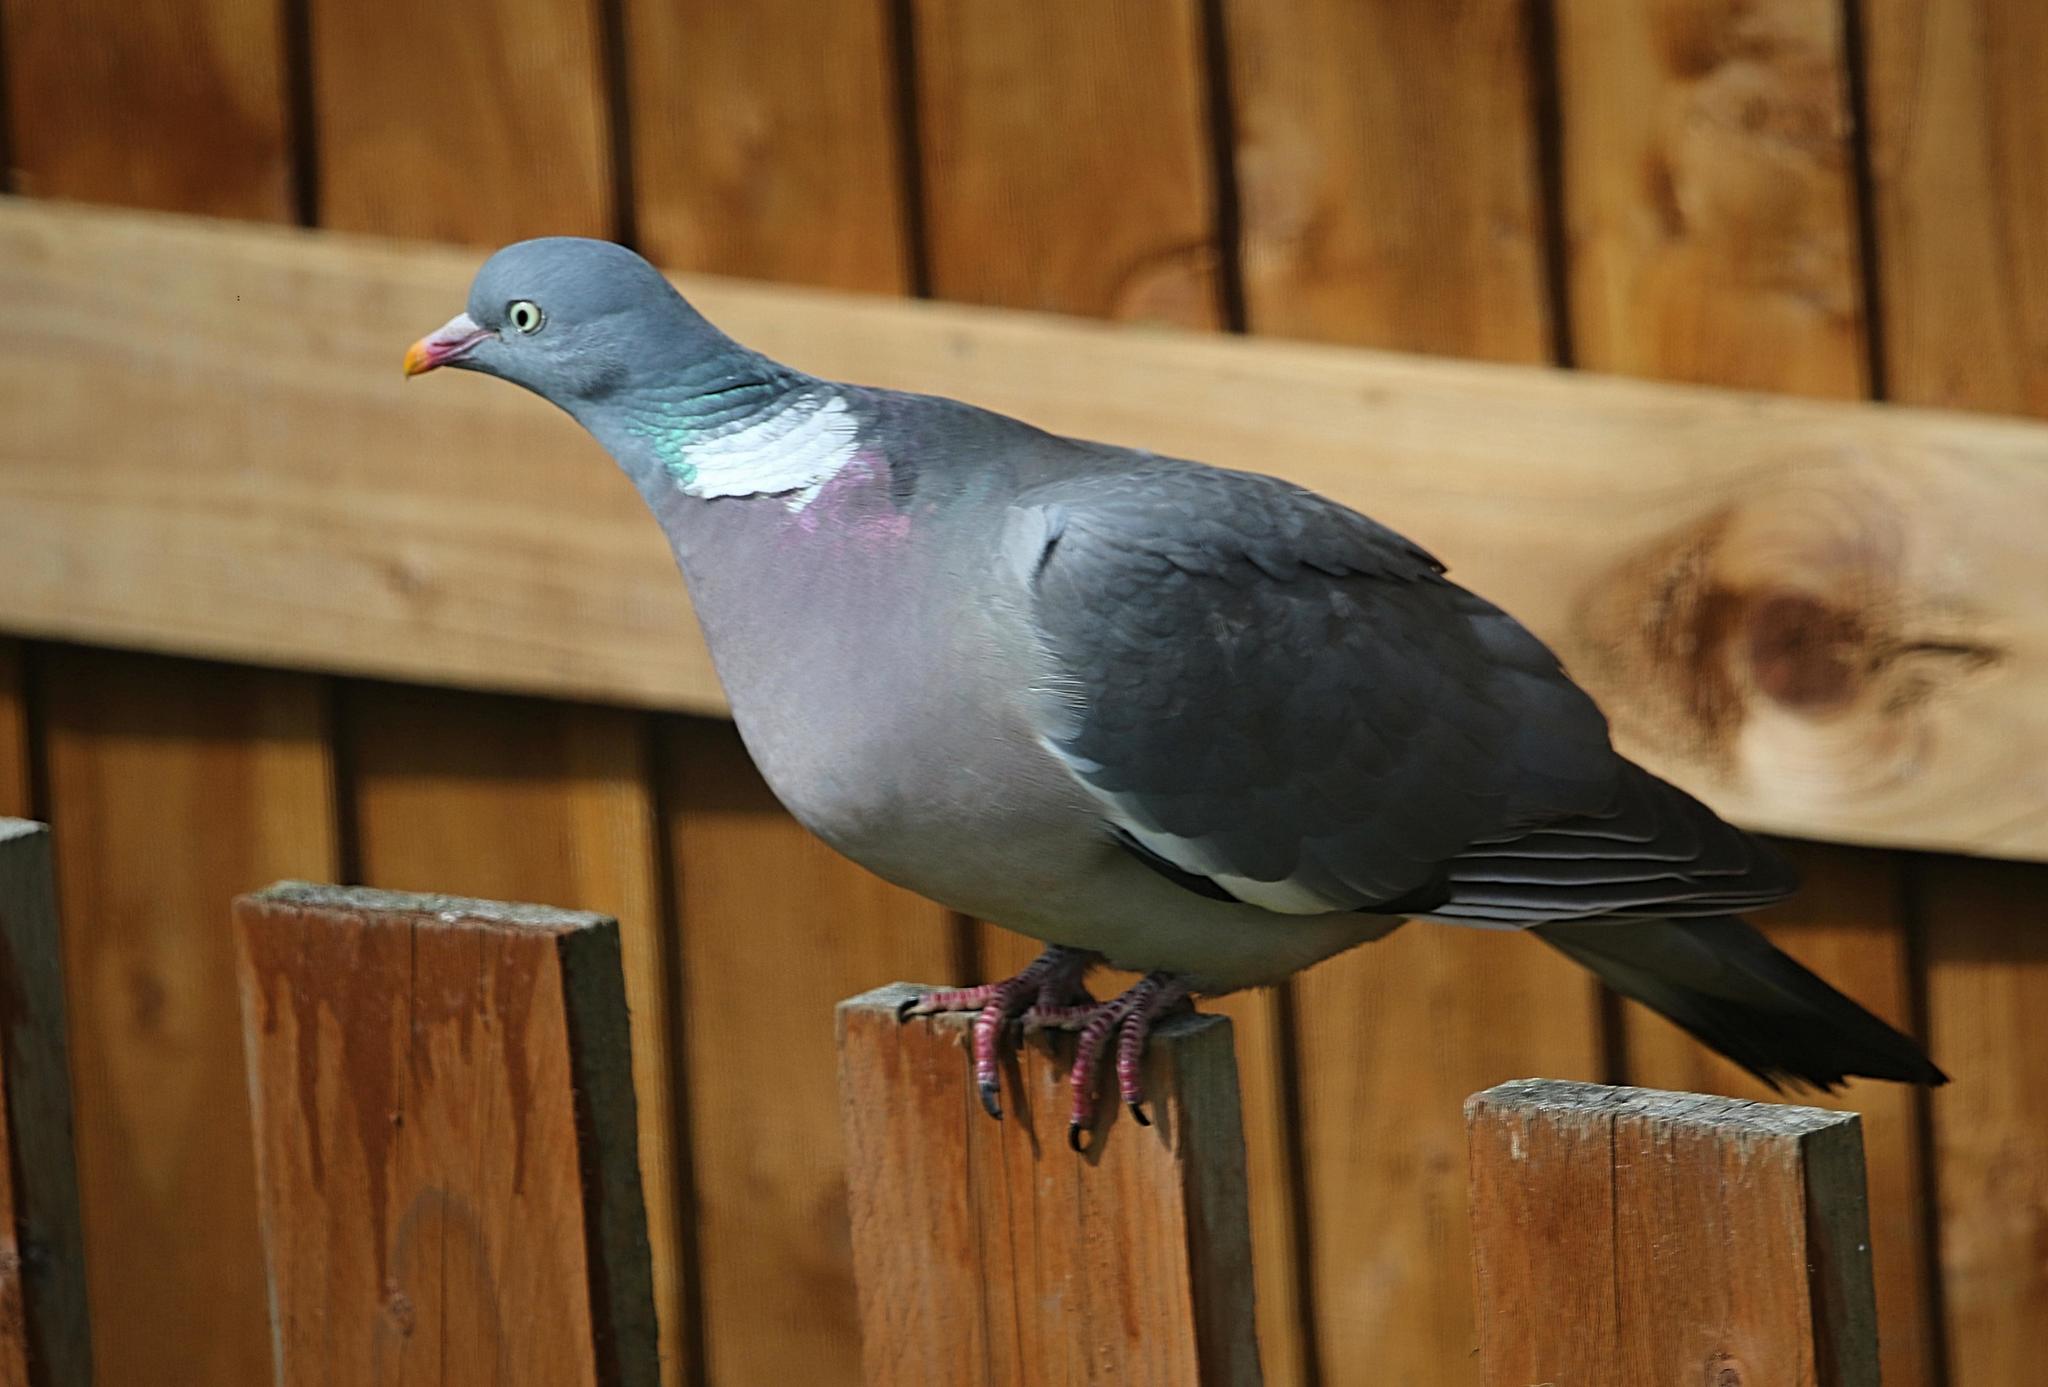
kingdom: Animalia
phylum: Chordata
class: Aves
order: Columbiformes
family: Columbidae
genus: Columba
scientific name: Columba palumbus
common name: Common wood pigeon
